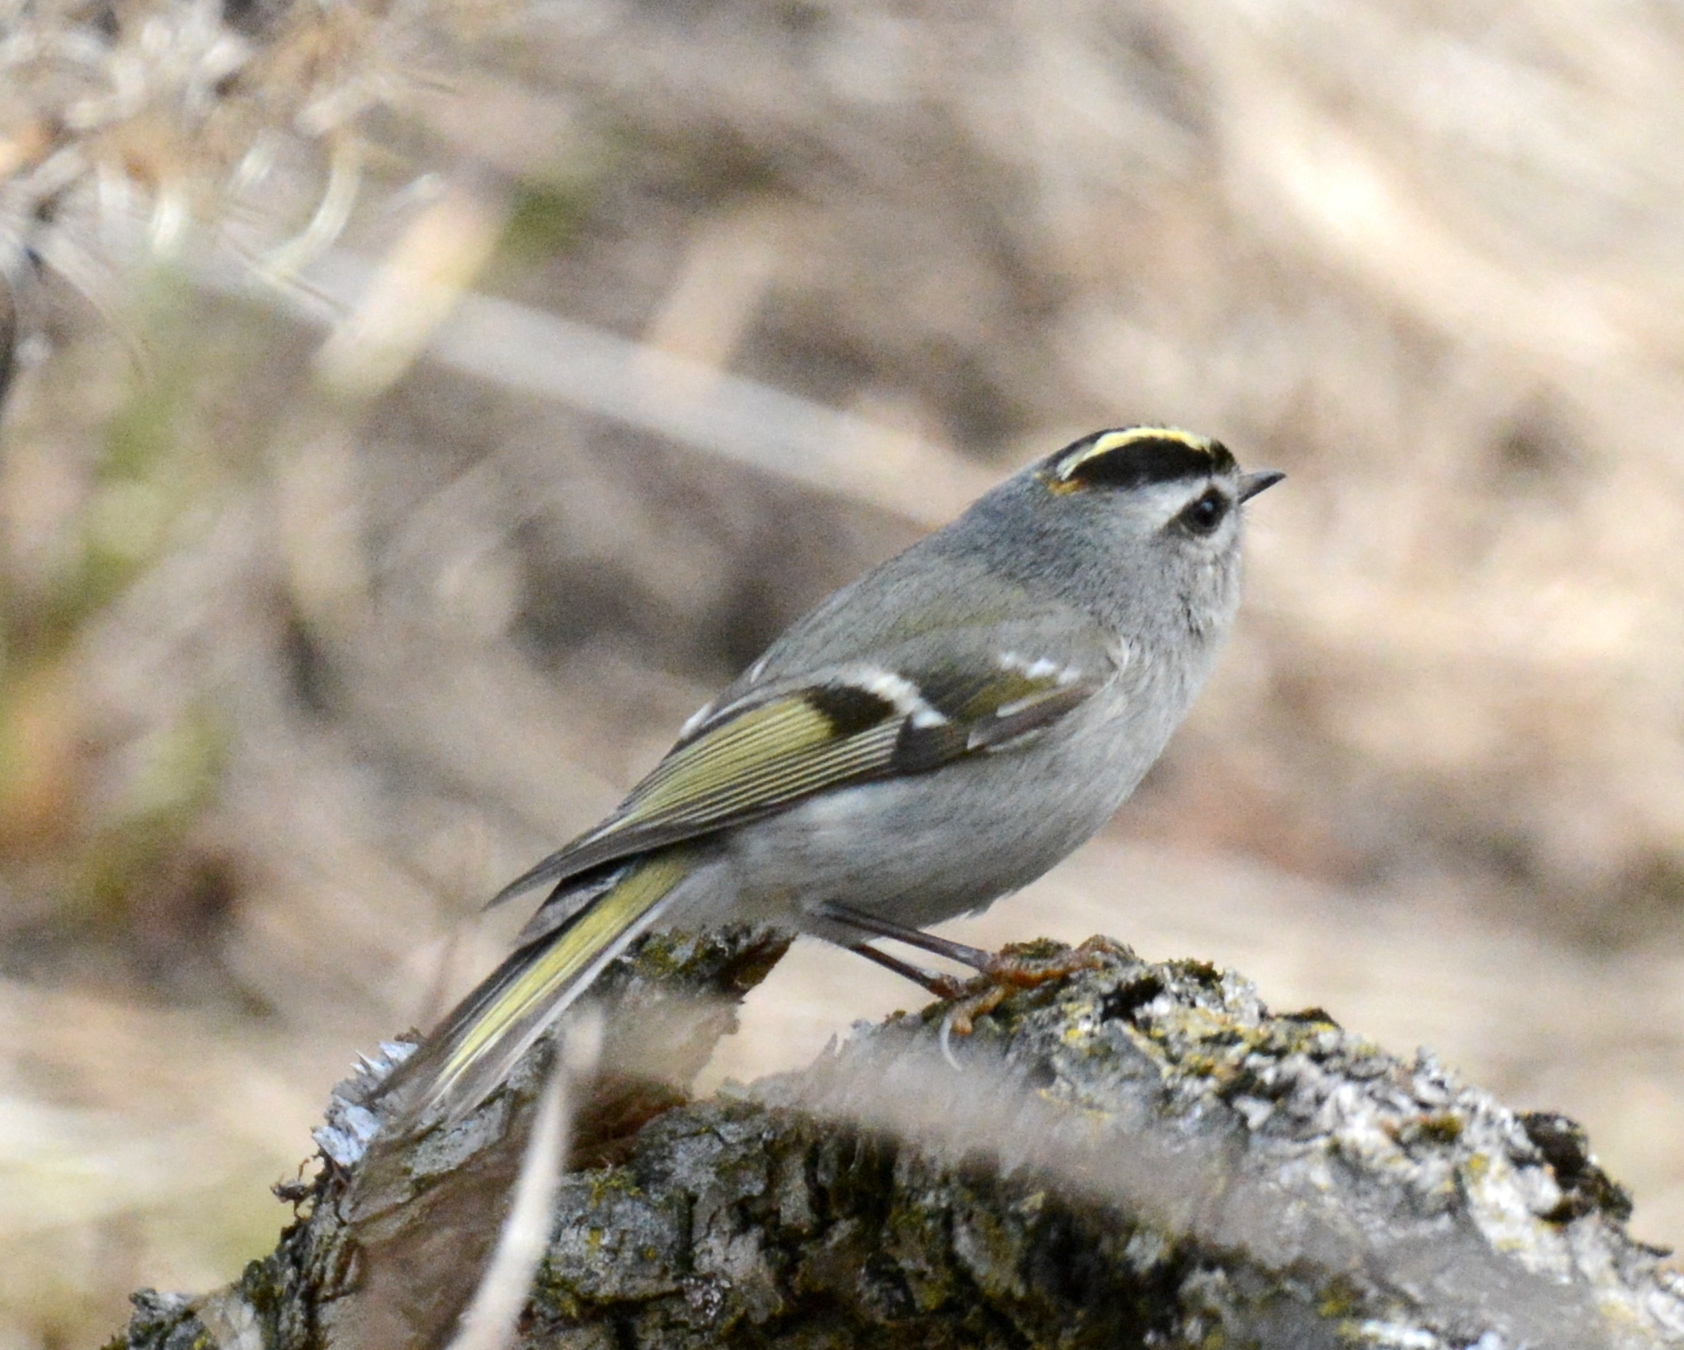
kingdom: Animalia
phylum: Chordata
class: Aves
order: Passeriformes
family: Regulidae
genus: Regulus
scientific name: Regulus satrapa
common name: Golden-crowned kinglet
